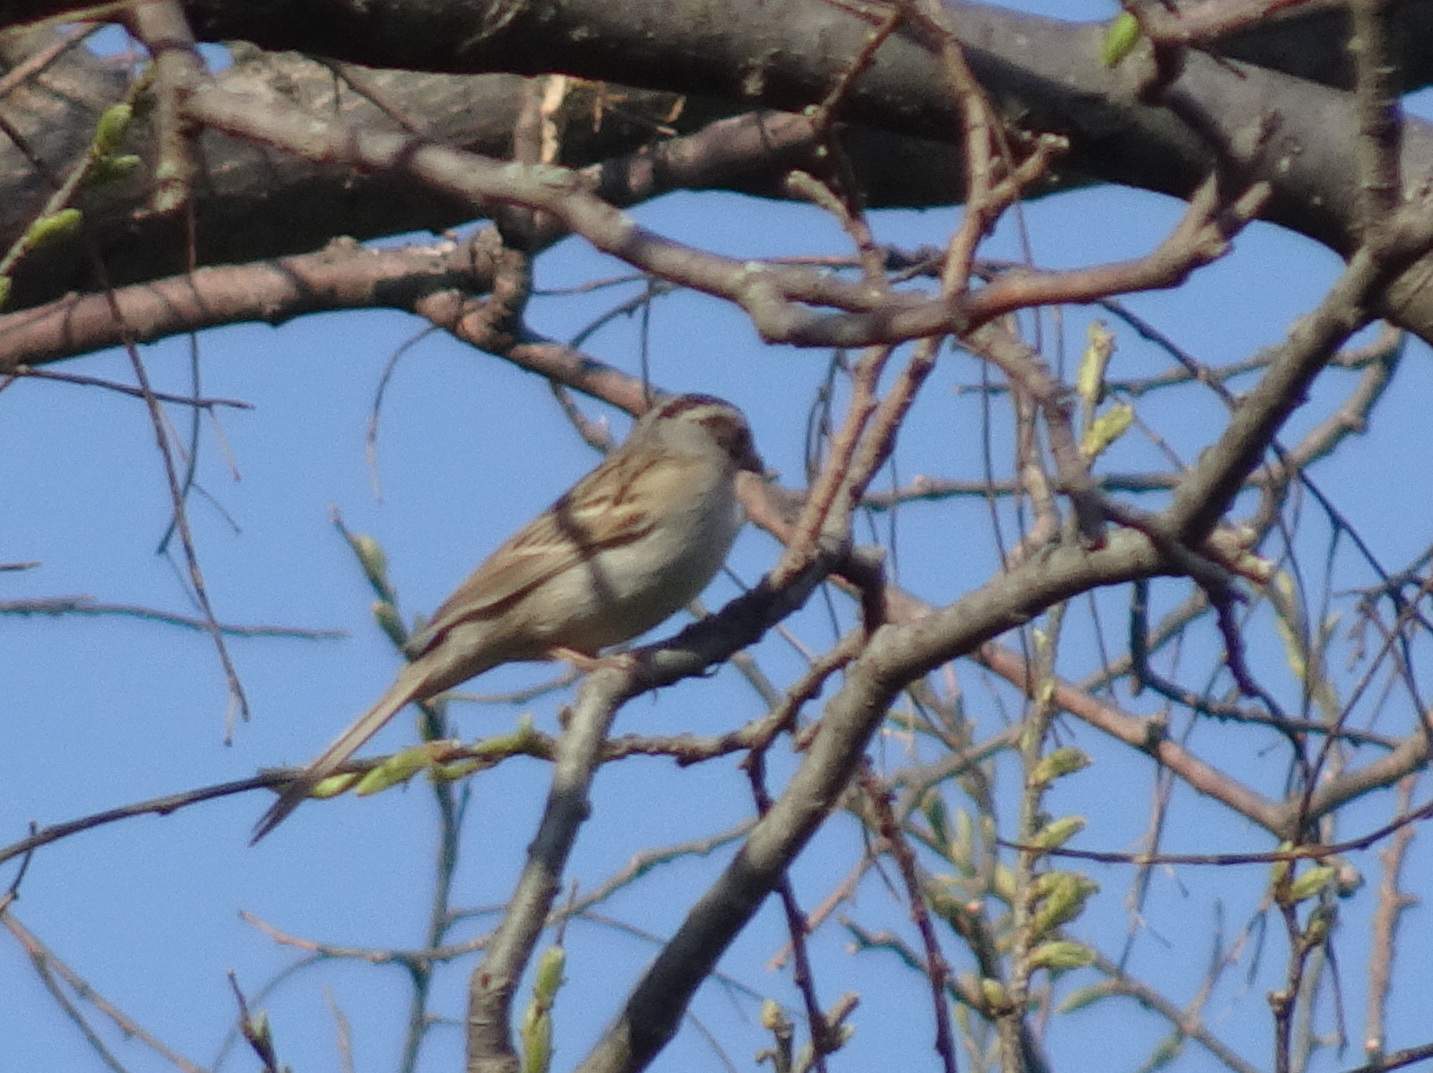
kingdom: Animalia
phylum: Chordata
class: Aves
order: Passeriformes
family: Passerellidae
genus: Spizella
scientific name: Spizella pallida
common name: Clay-colored sparrow
